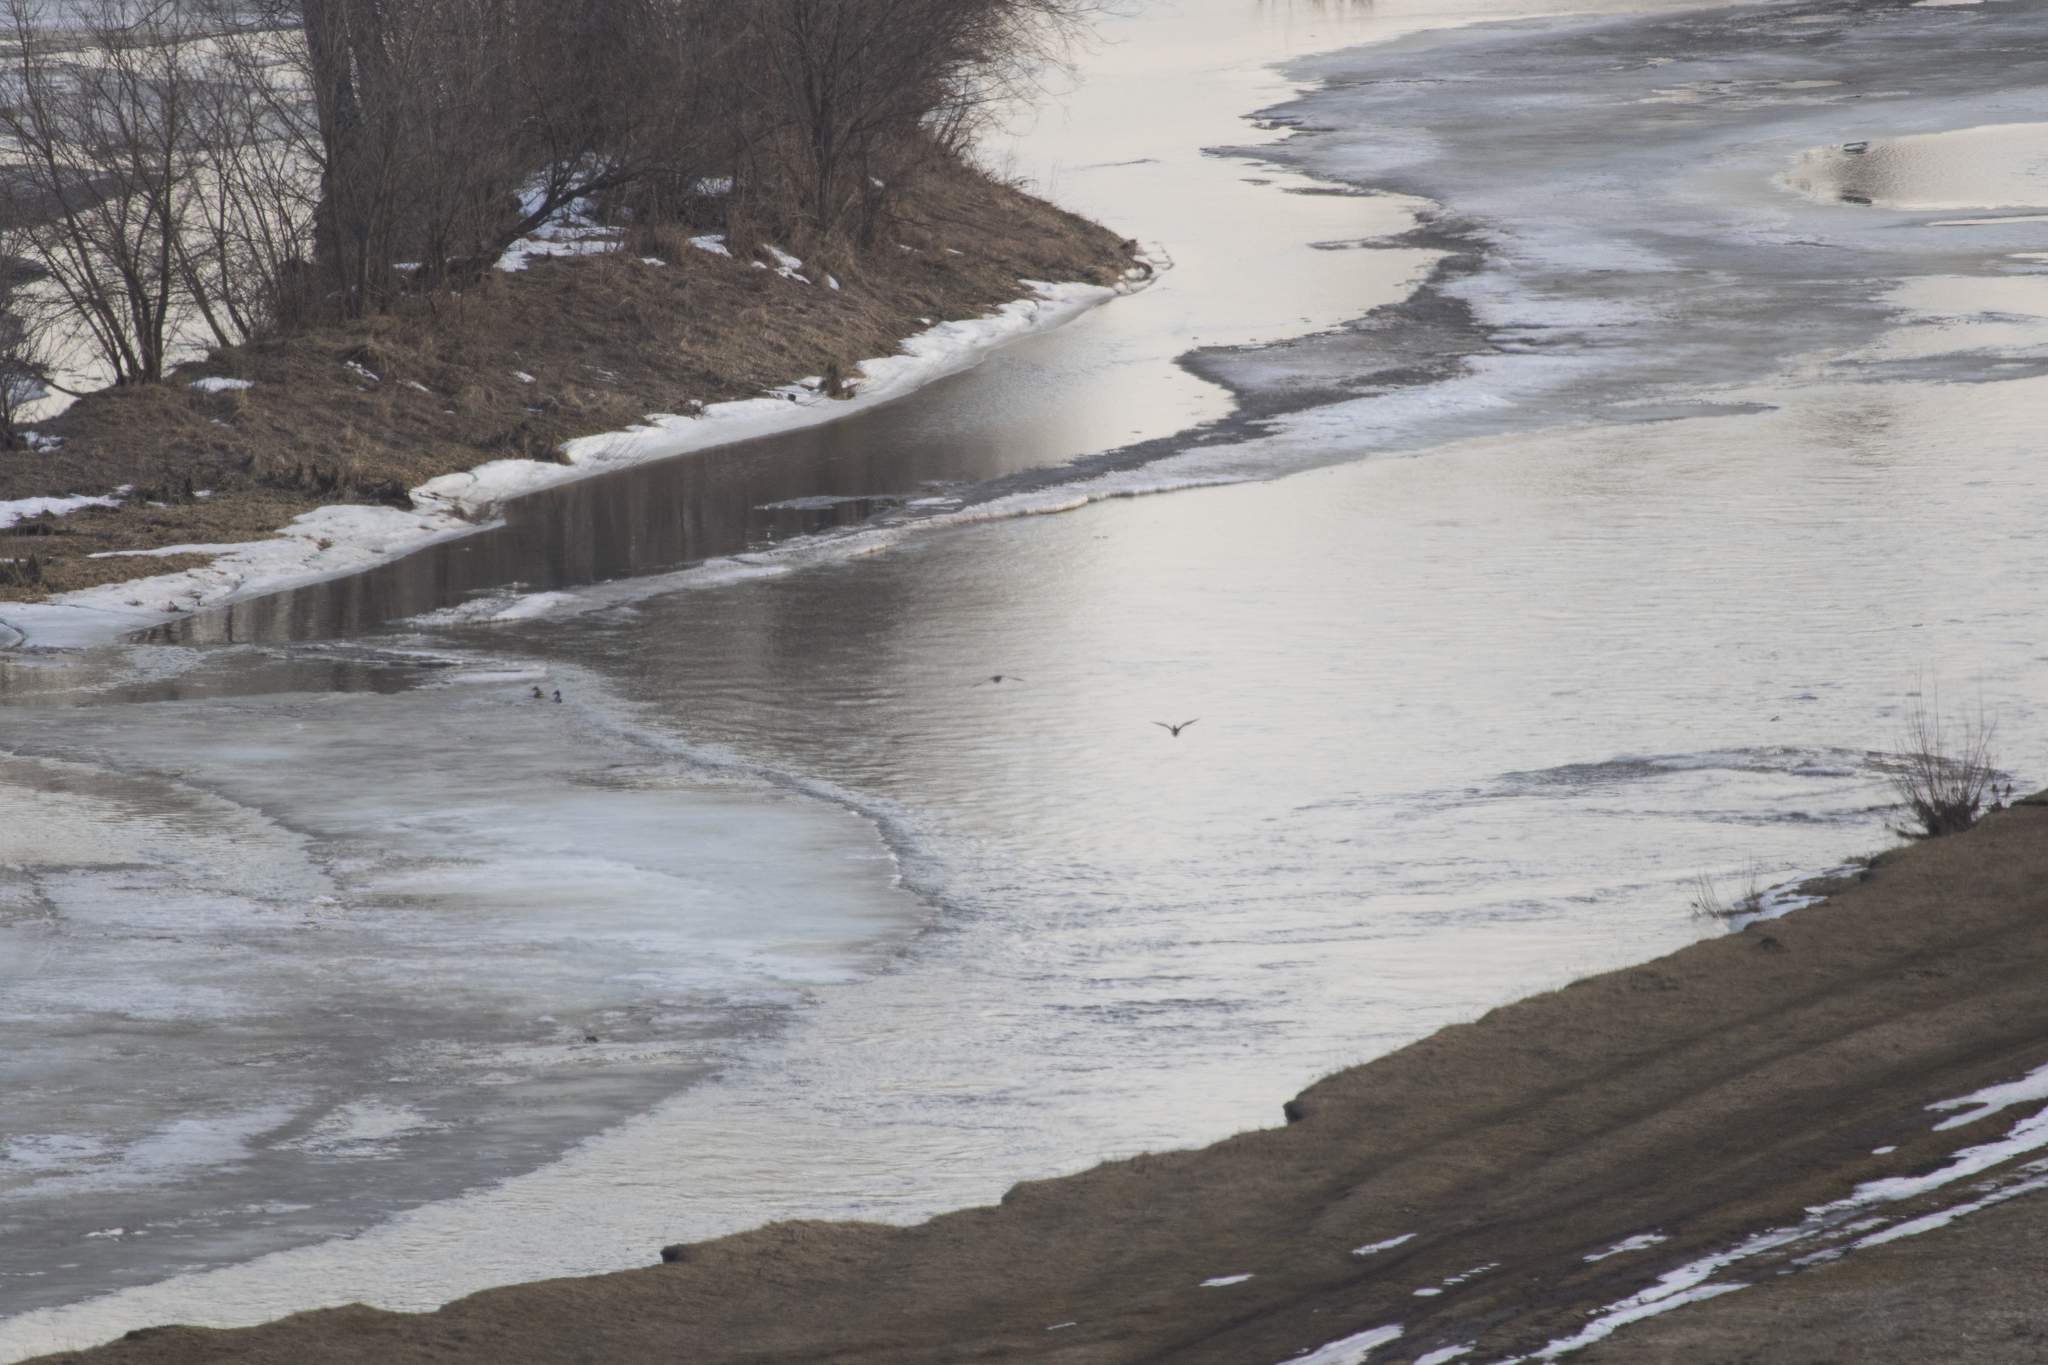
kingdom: Animalia
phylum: Chordata
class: Aves
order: Anseriformes
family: Anatidae
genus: Anas
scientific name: Anas platyrhynchos
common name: Mallard
